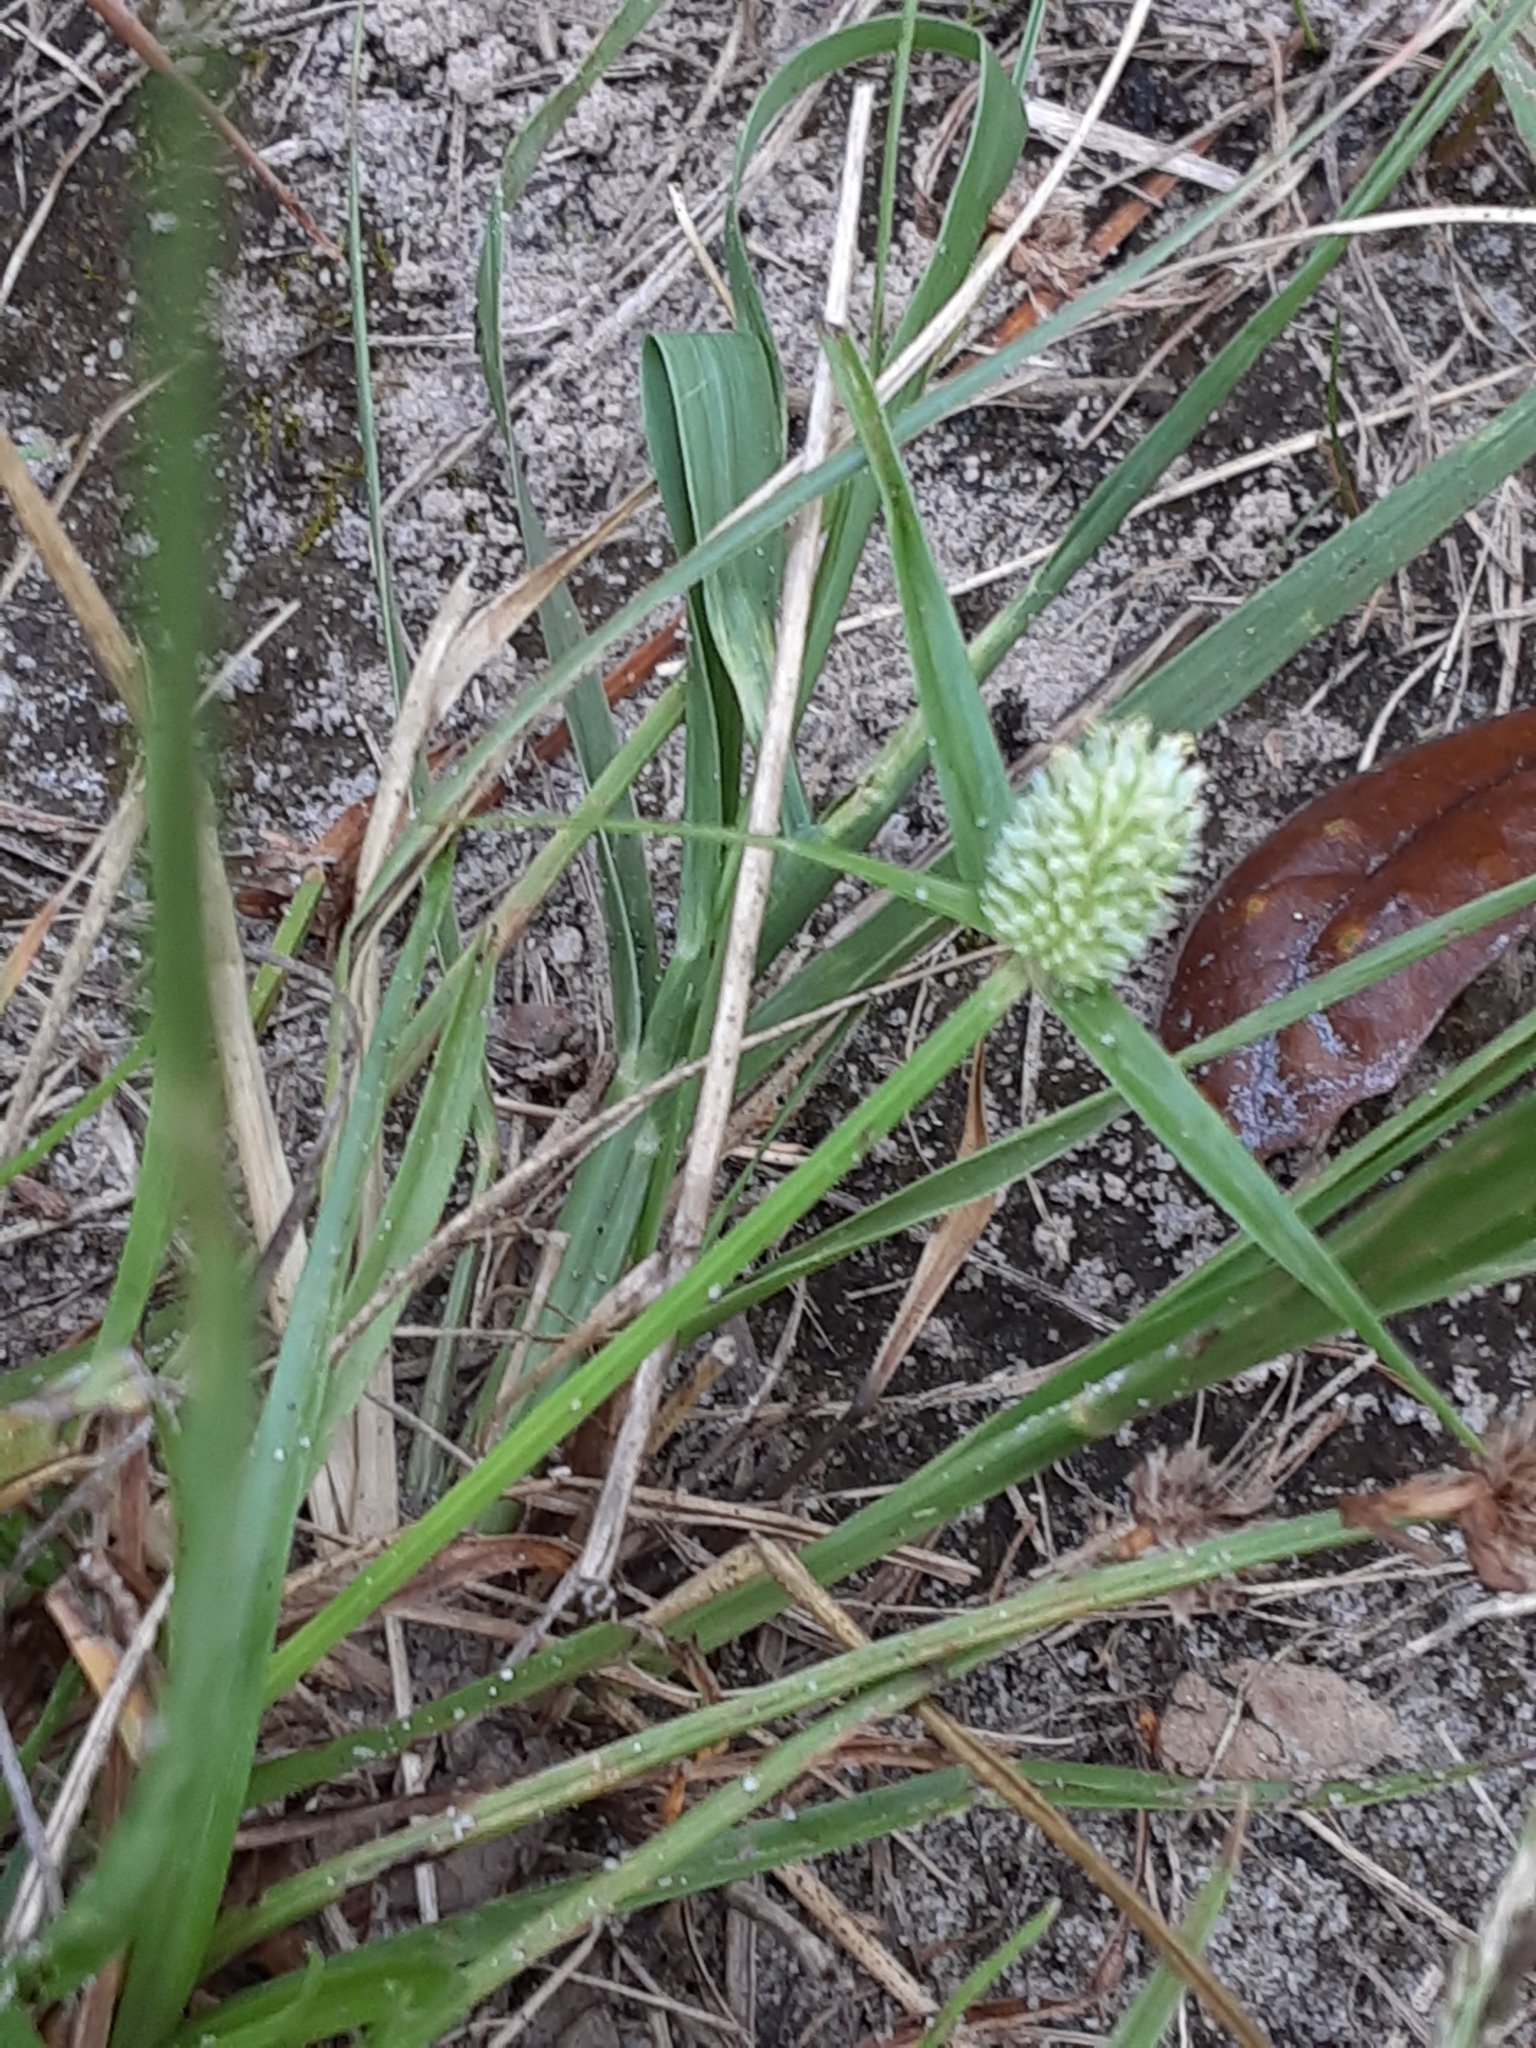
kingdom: Plantae
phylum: Tracheophyta
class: Liliopsida
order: Poales
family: Cyperaceae
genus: Cyperus
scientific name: Cyperus sesquiflorus
